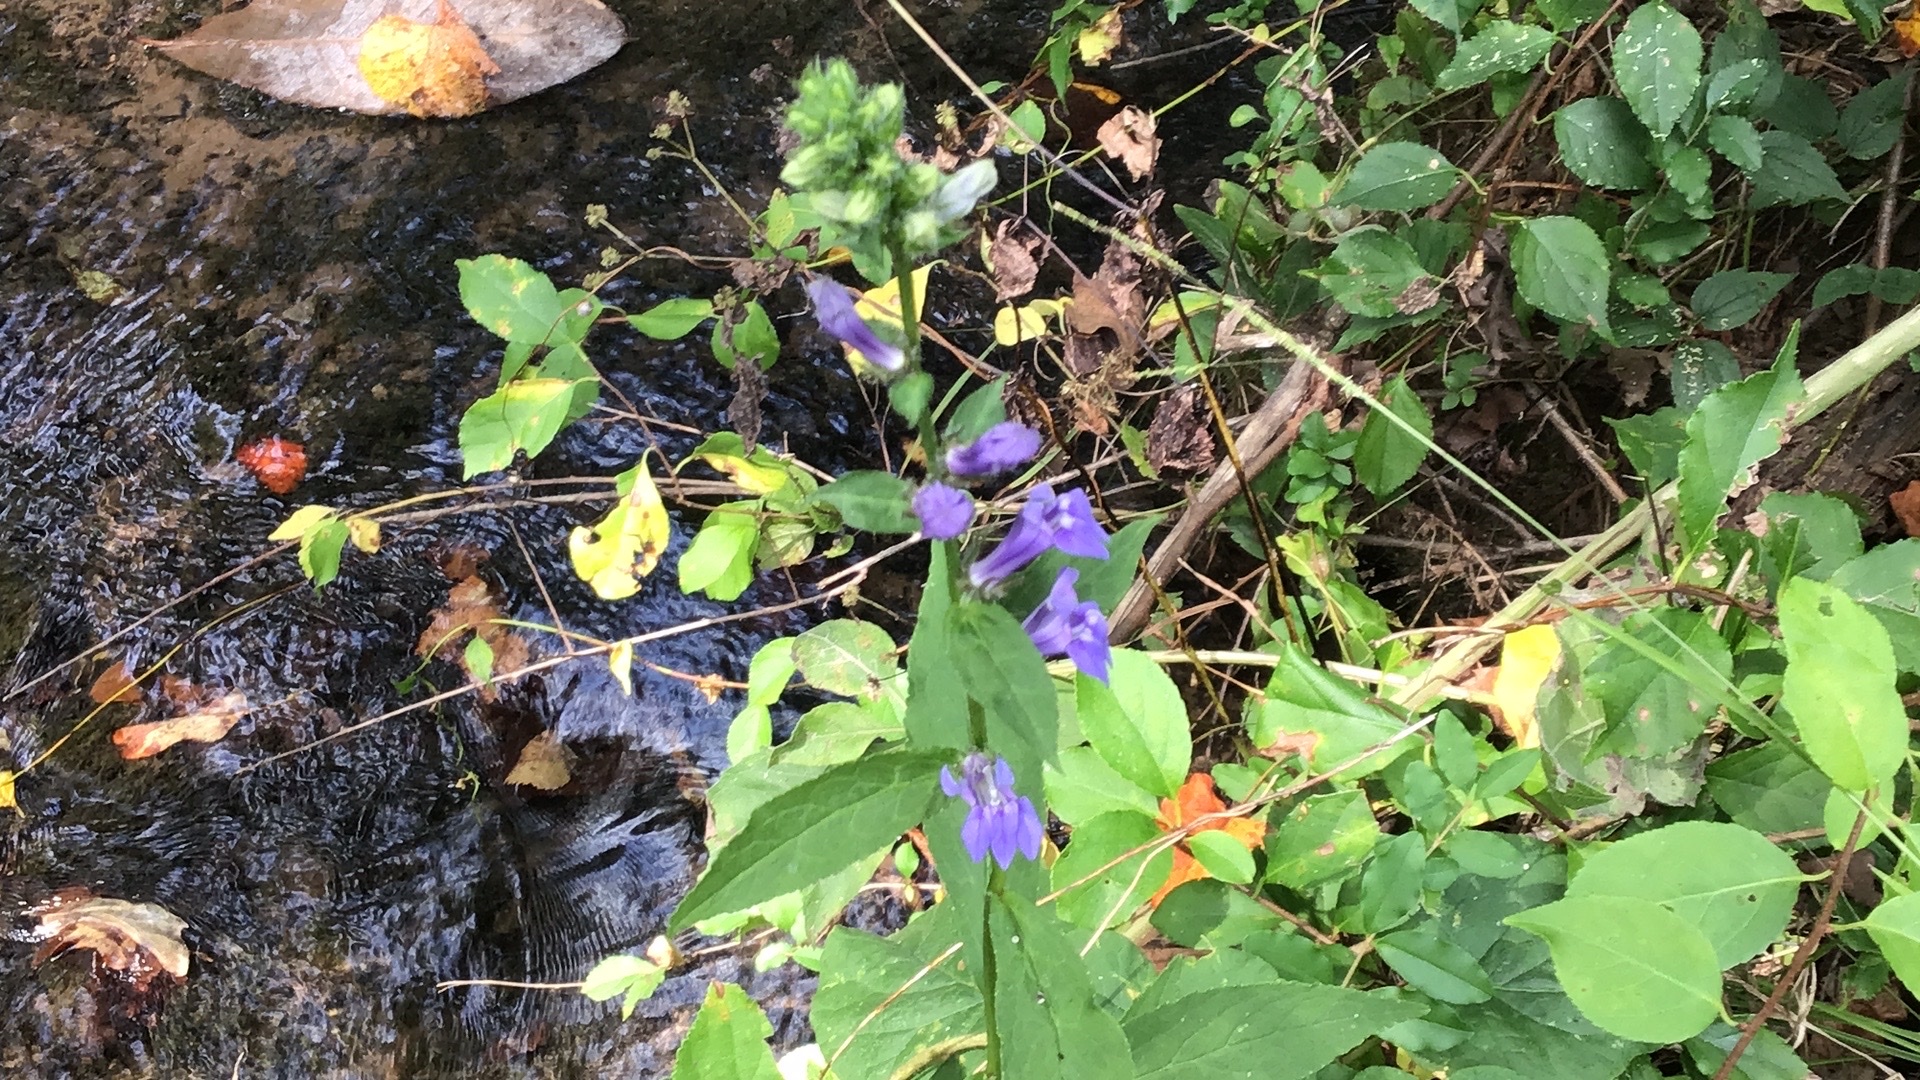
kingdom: Plantae
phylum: Tracheophyta
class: Magnoliopsida
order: Asterales
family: Campanulaceae
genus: Lobelia
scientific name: Lobelia siphilitica
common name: Great lobelia
